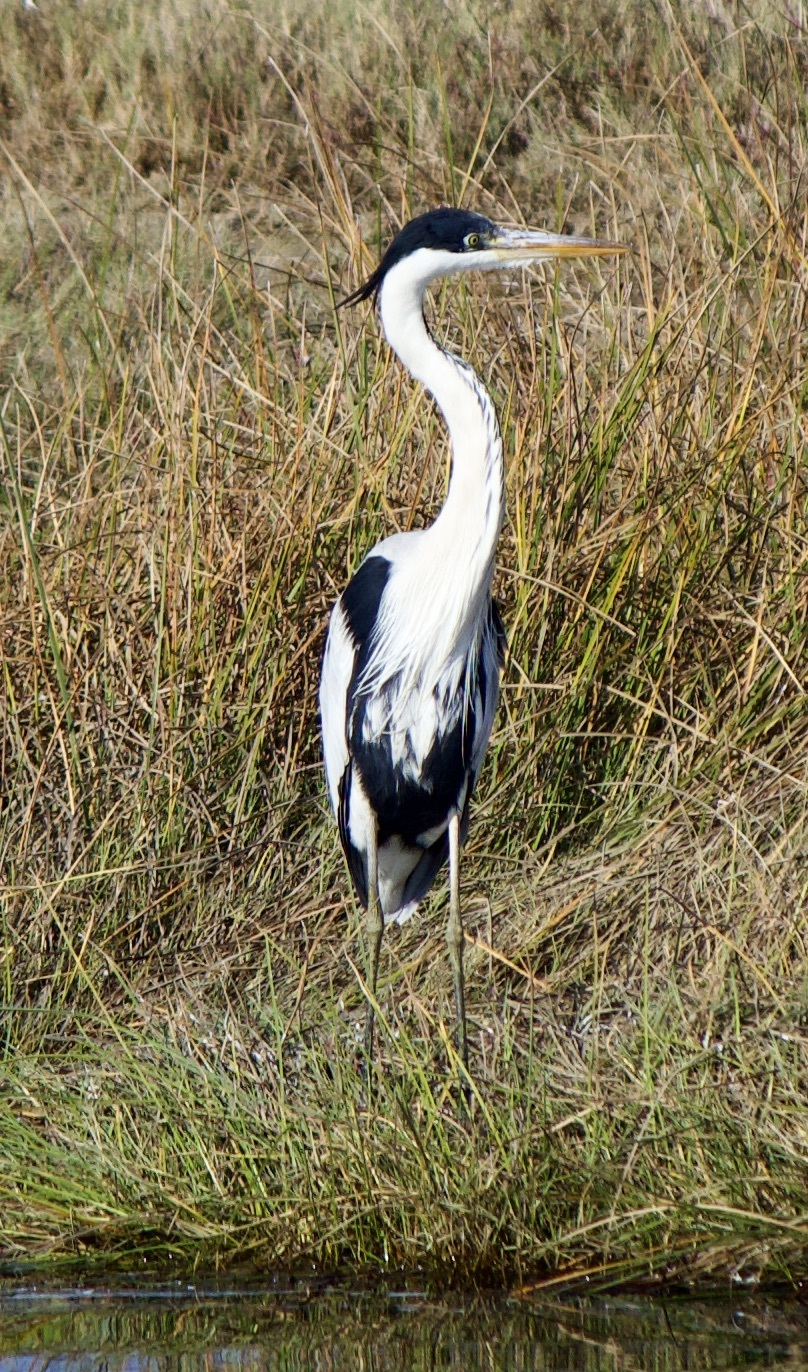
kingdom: Animalia
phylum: Chordata
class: Aves
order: Pelecaniformes
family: Ardeidae
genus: Ardea
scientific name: Ardea cocoi
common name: Cocoi heron
